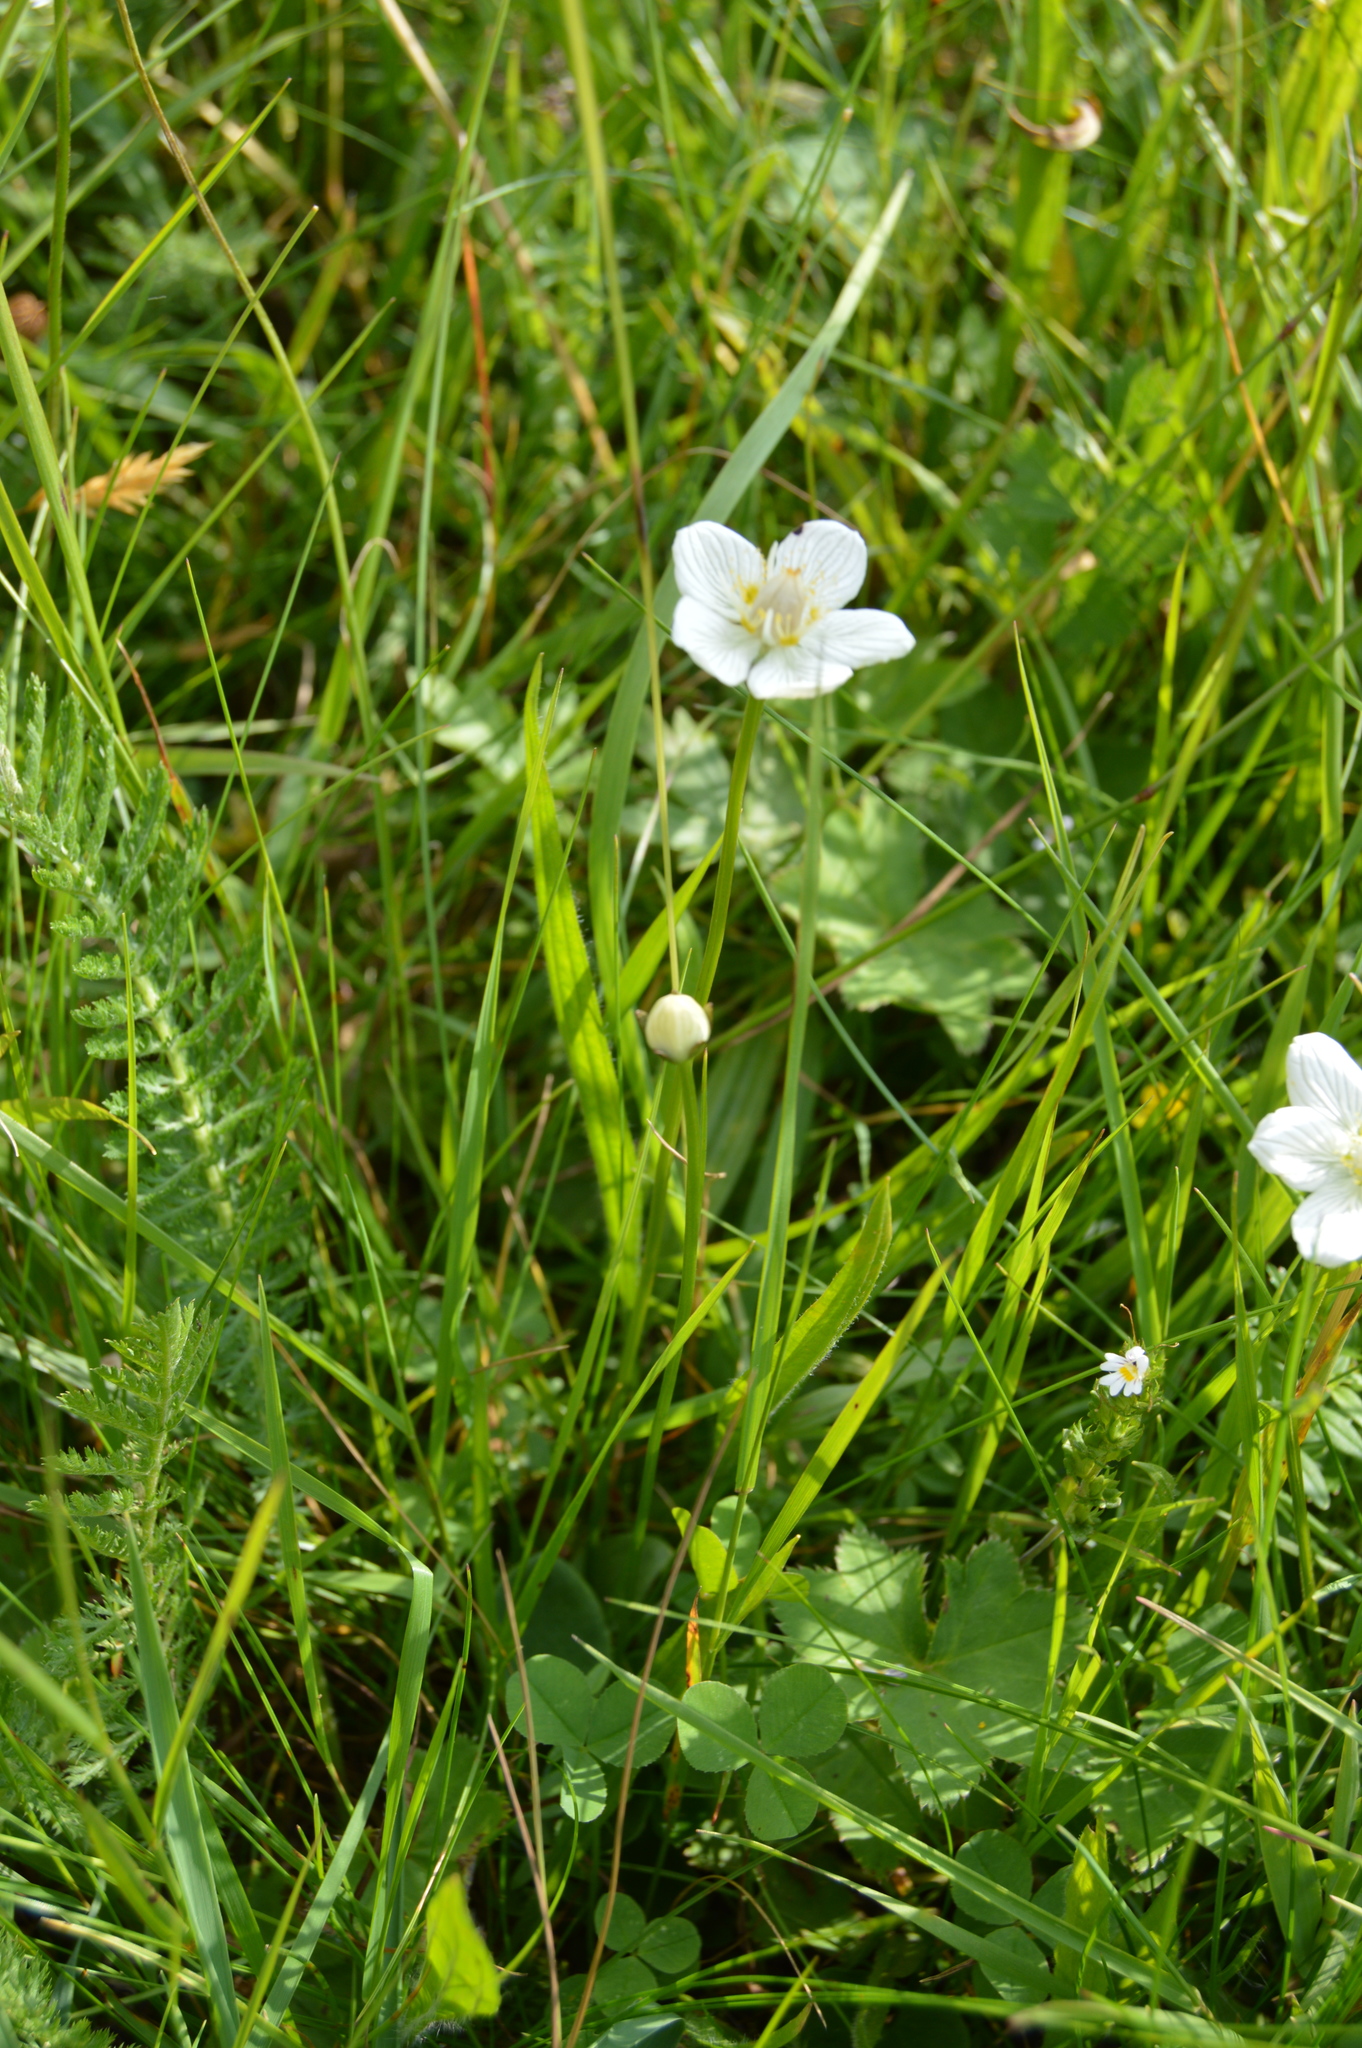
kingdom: Plantae
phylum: Tracheophyta
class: Magnoliopsida
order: Celastrales
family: Parnassiaceae
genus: Parnassia
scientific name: Parnassia palustris
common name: Grass-of-parnassus
